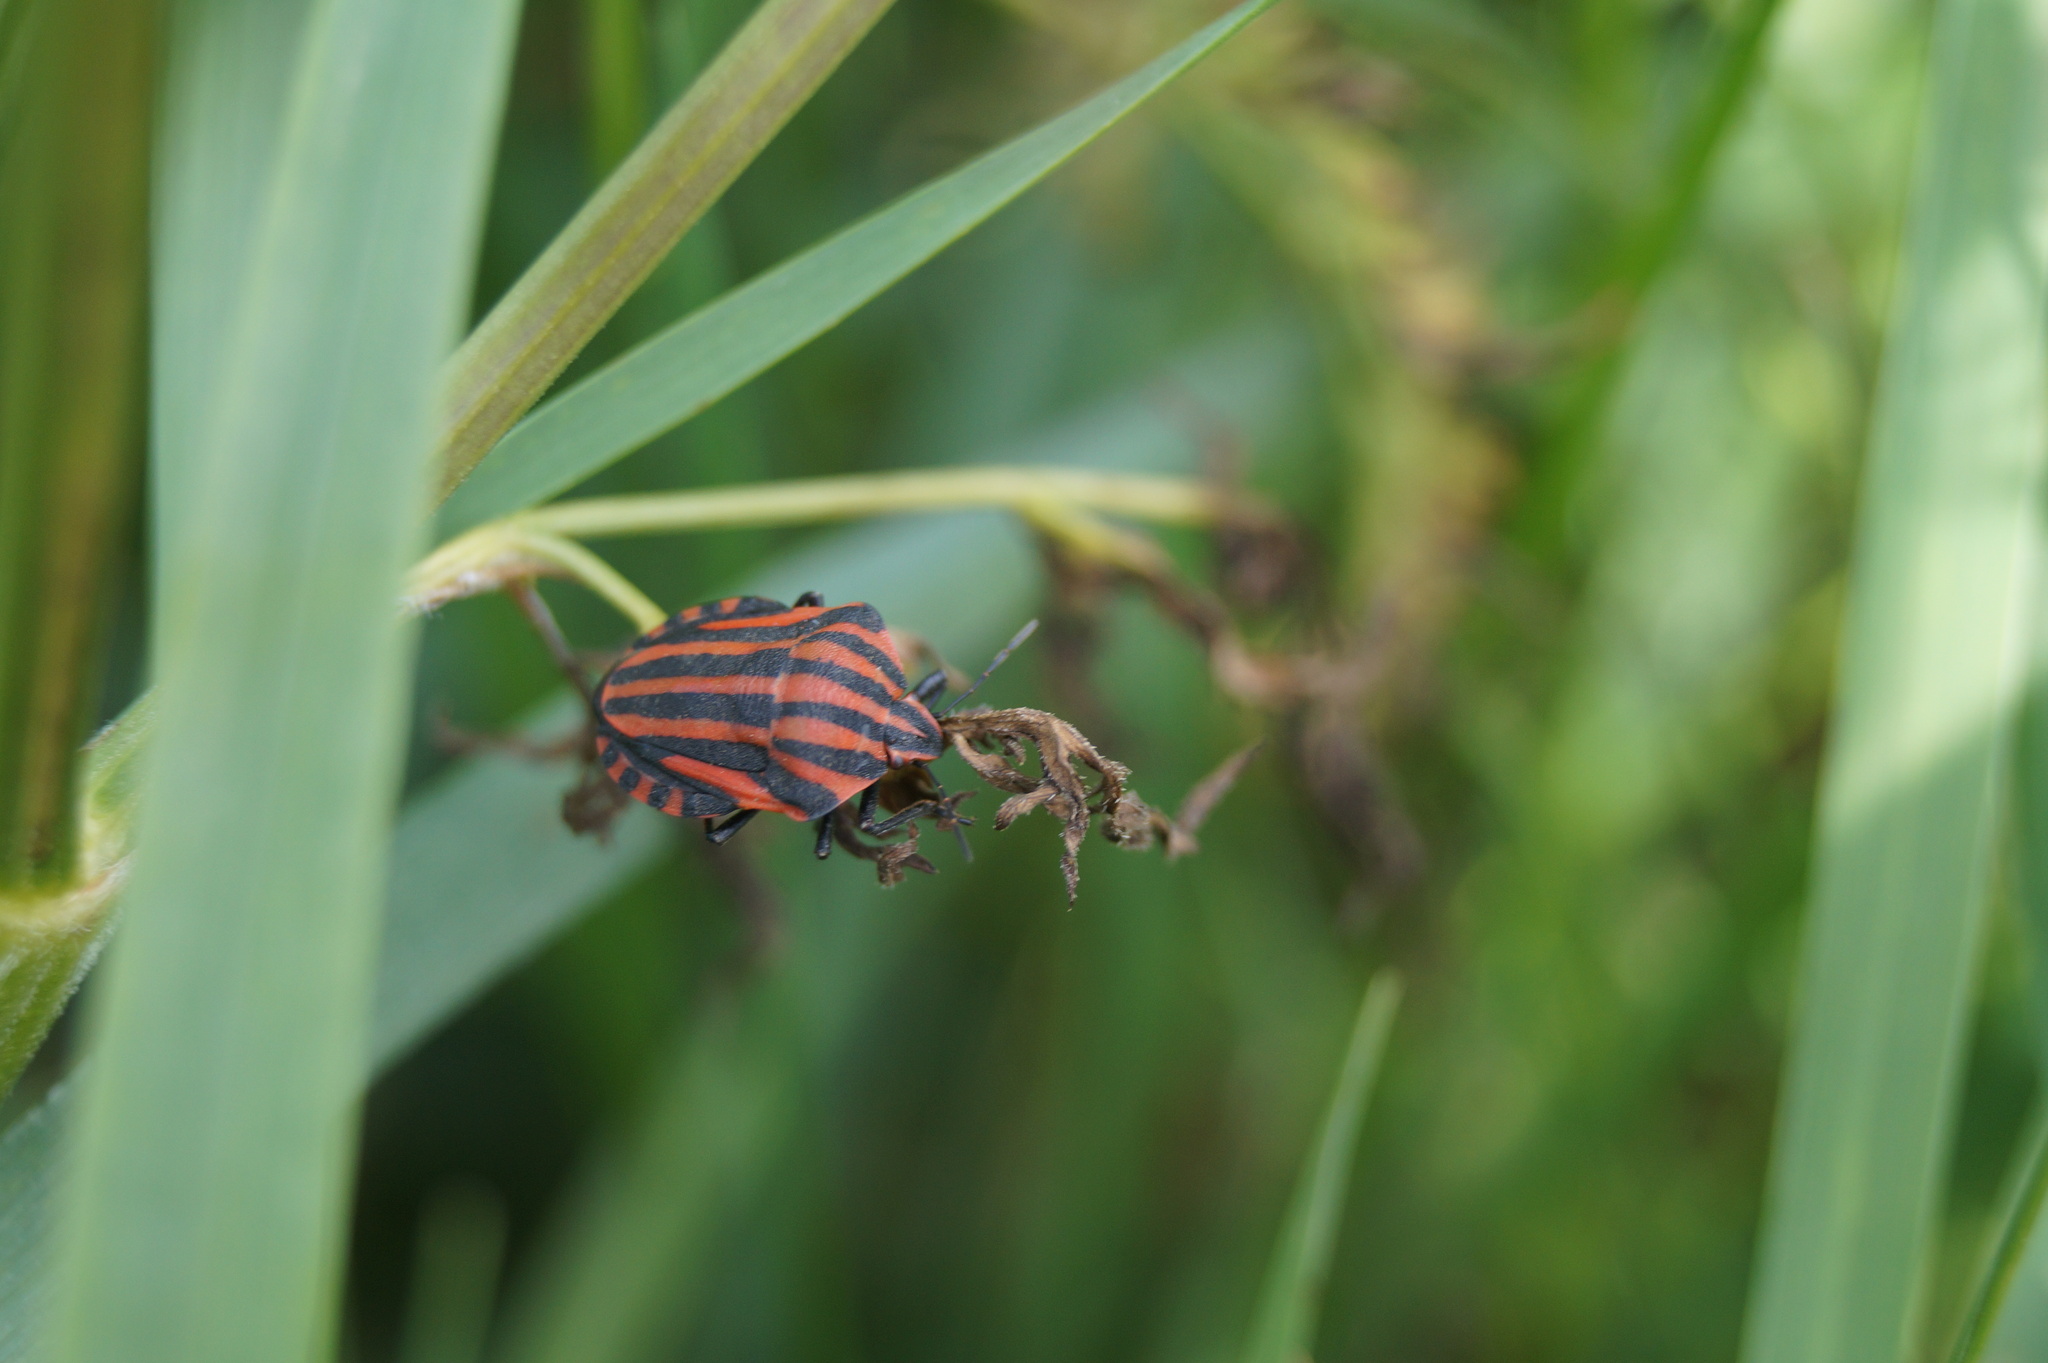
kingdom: Animalia
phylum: Arthropoda
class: Insecta
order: Hemiptera
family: Pentatomidae
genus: Graphosoma
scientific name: Graphosoma italicum
